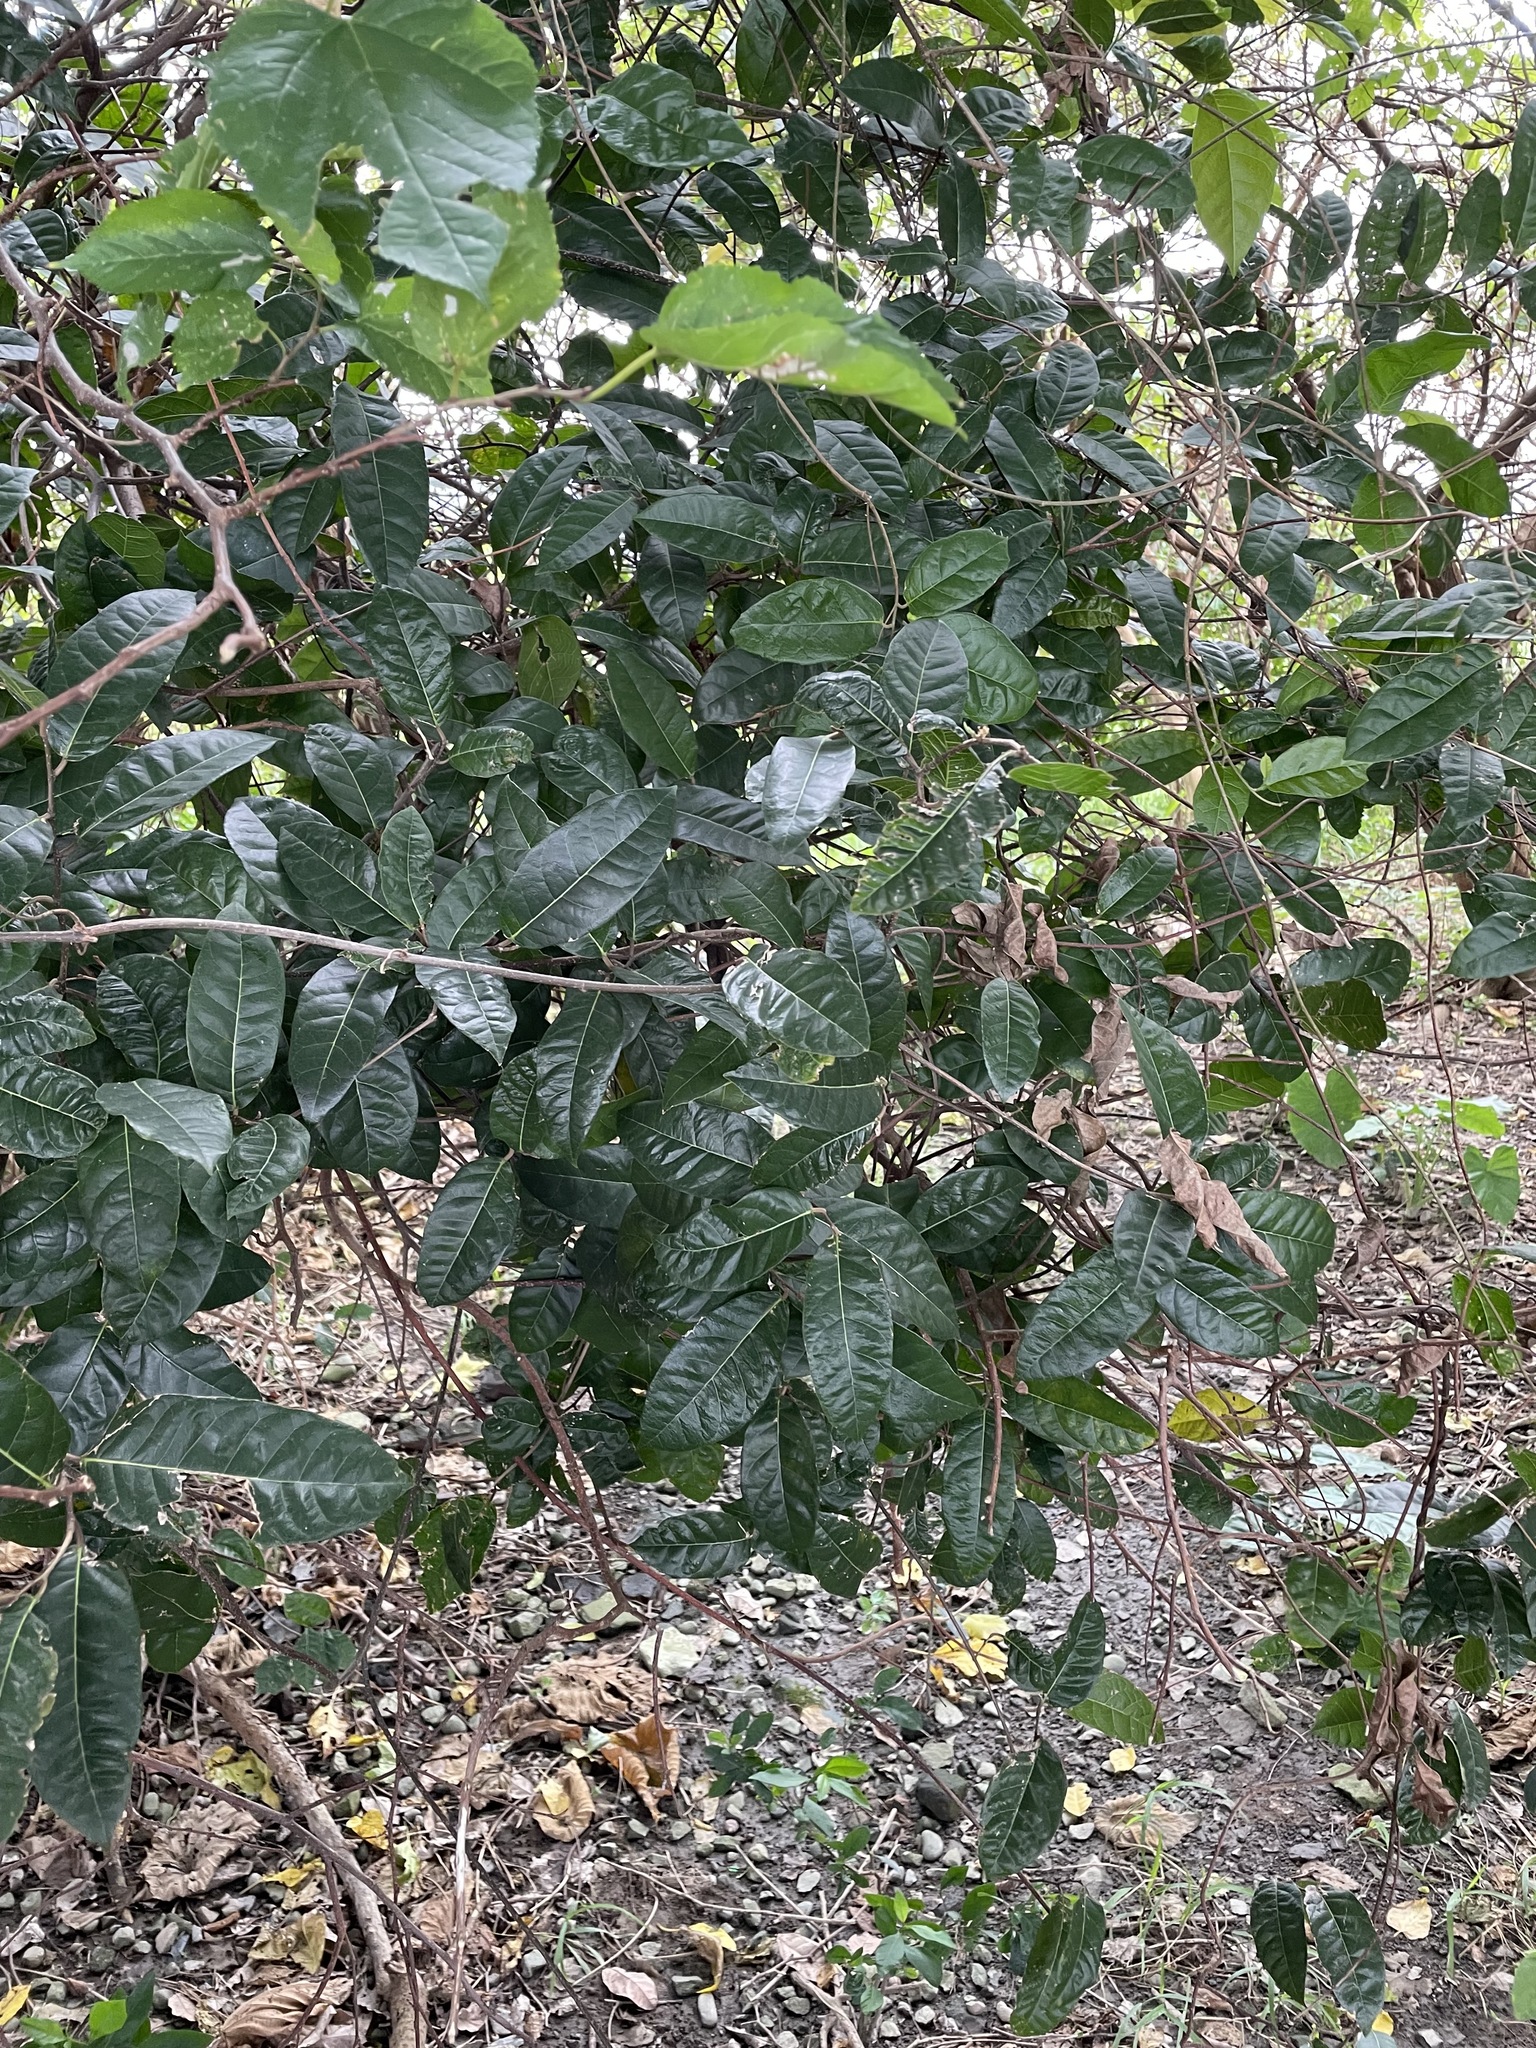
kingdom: Plantae
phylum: Tracheophyta
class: Magnoliopsida
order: Rosales
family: Moraceae
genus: Malaisia
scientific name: Malaisia scandens
